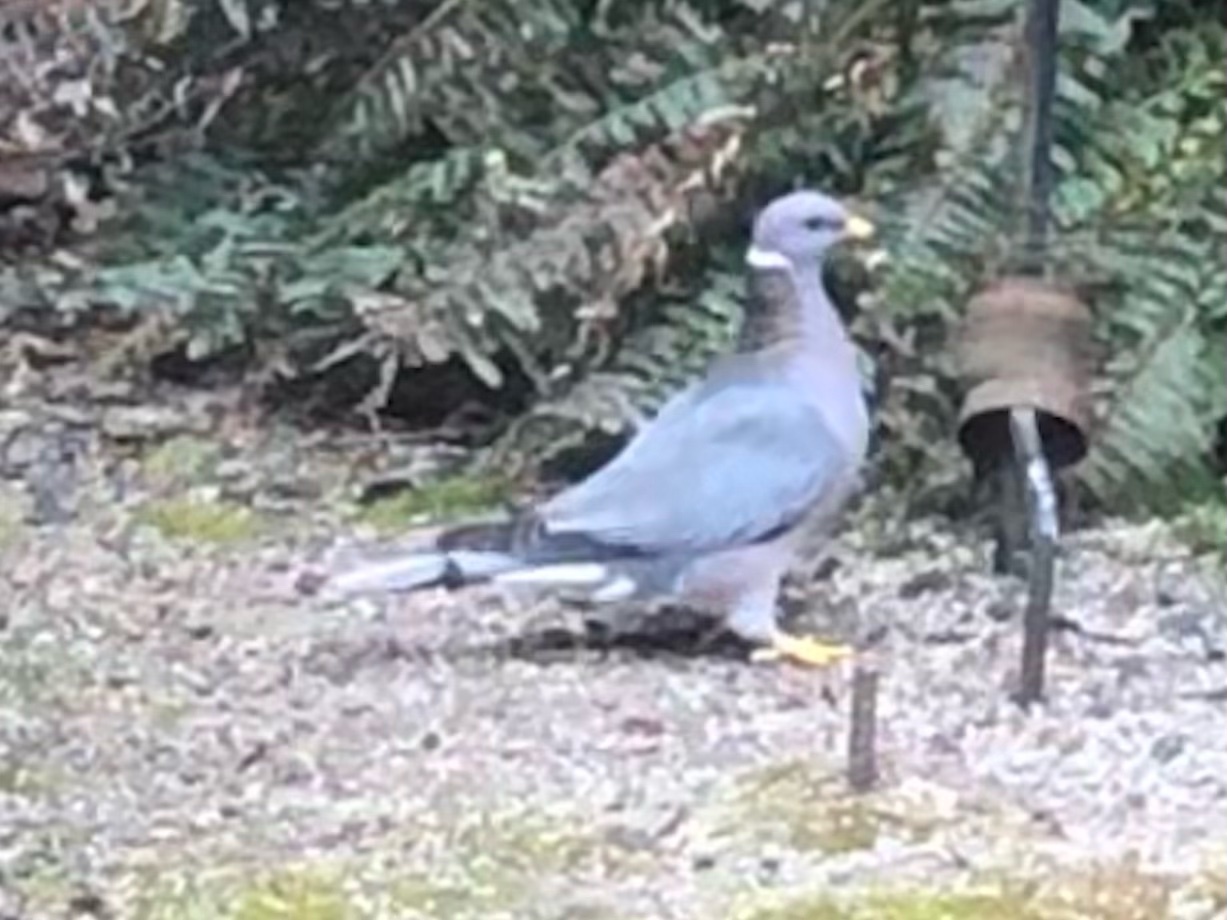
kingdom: Animalia
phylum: Chordata
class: Aves
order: Columbiformes
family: Columbidae
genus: Patagioenas
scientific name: Patagioenas fasciata
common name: Band-tailed pigeon
